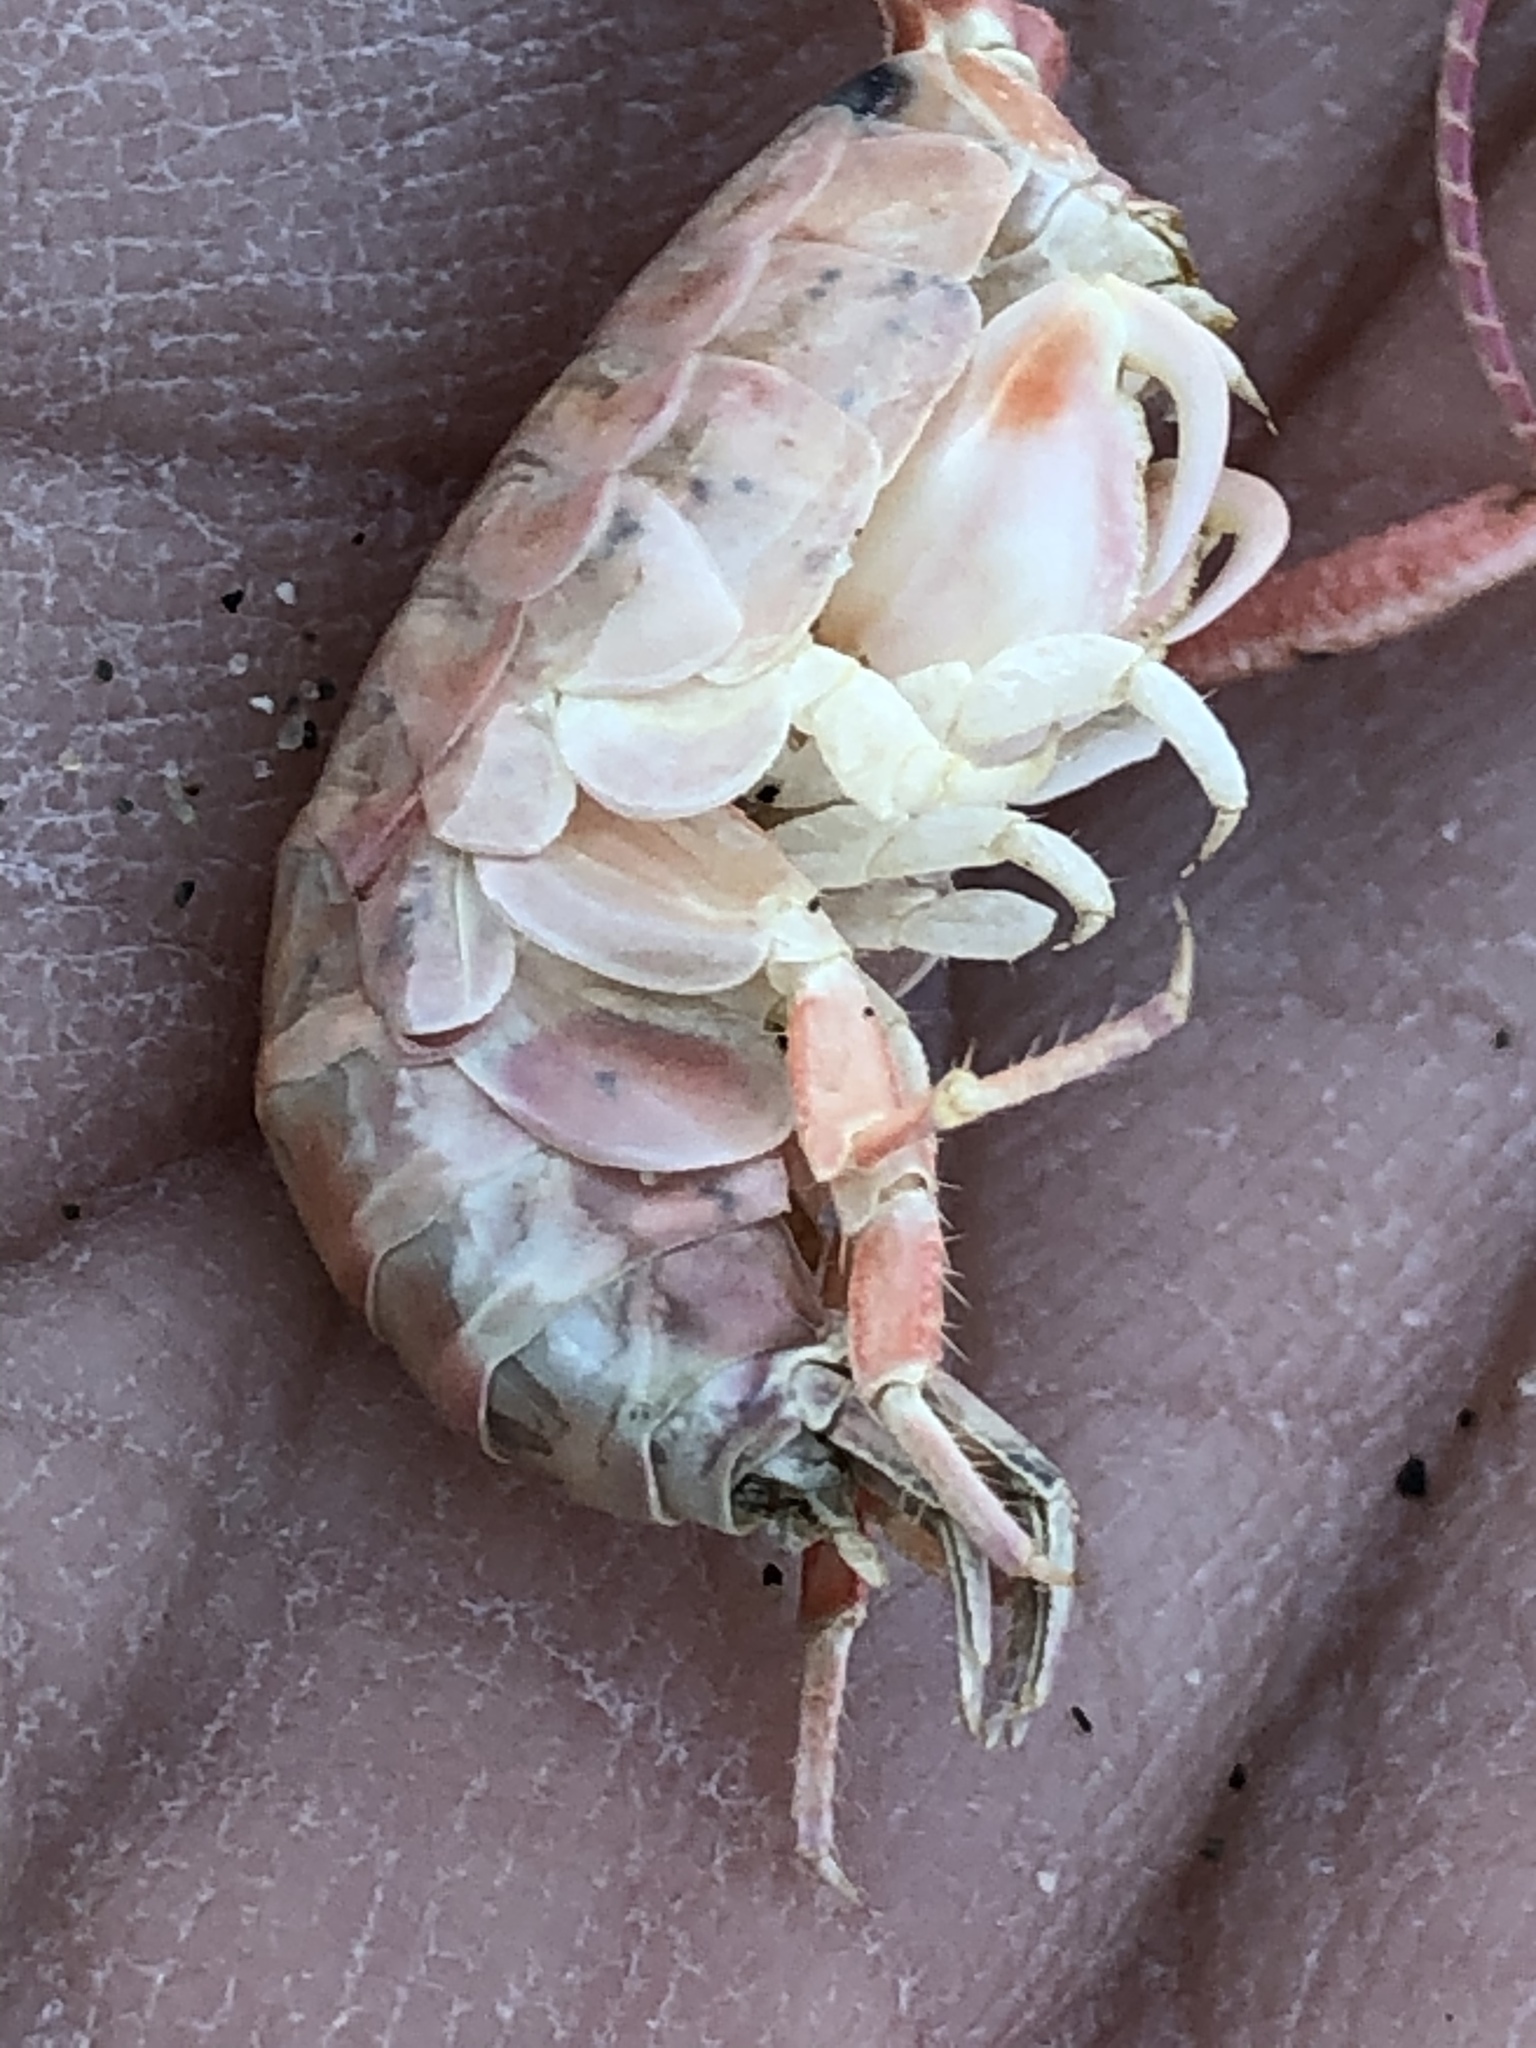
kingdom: Animalia
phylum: Arthropoda
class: Malacostraca
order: Amphipoda
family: Talitridae
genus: Megalorchestia
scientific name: Megalorchestia californiana
